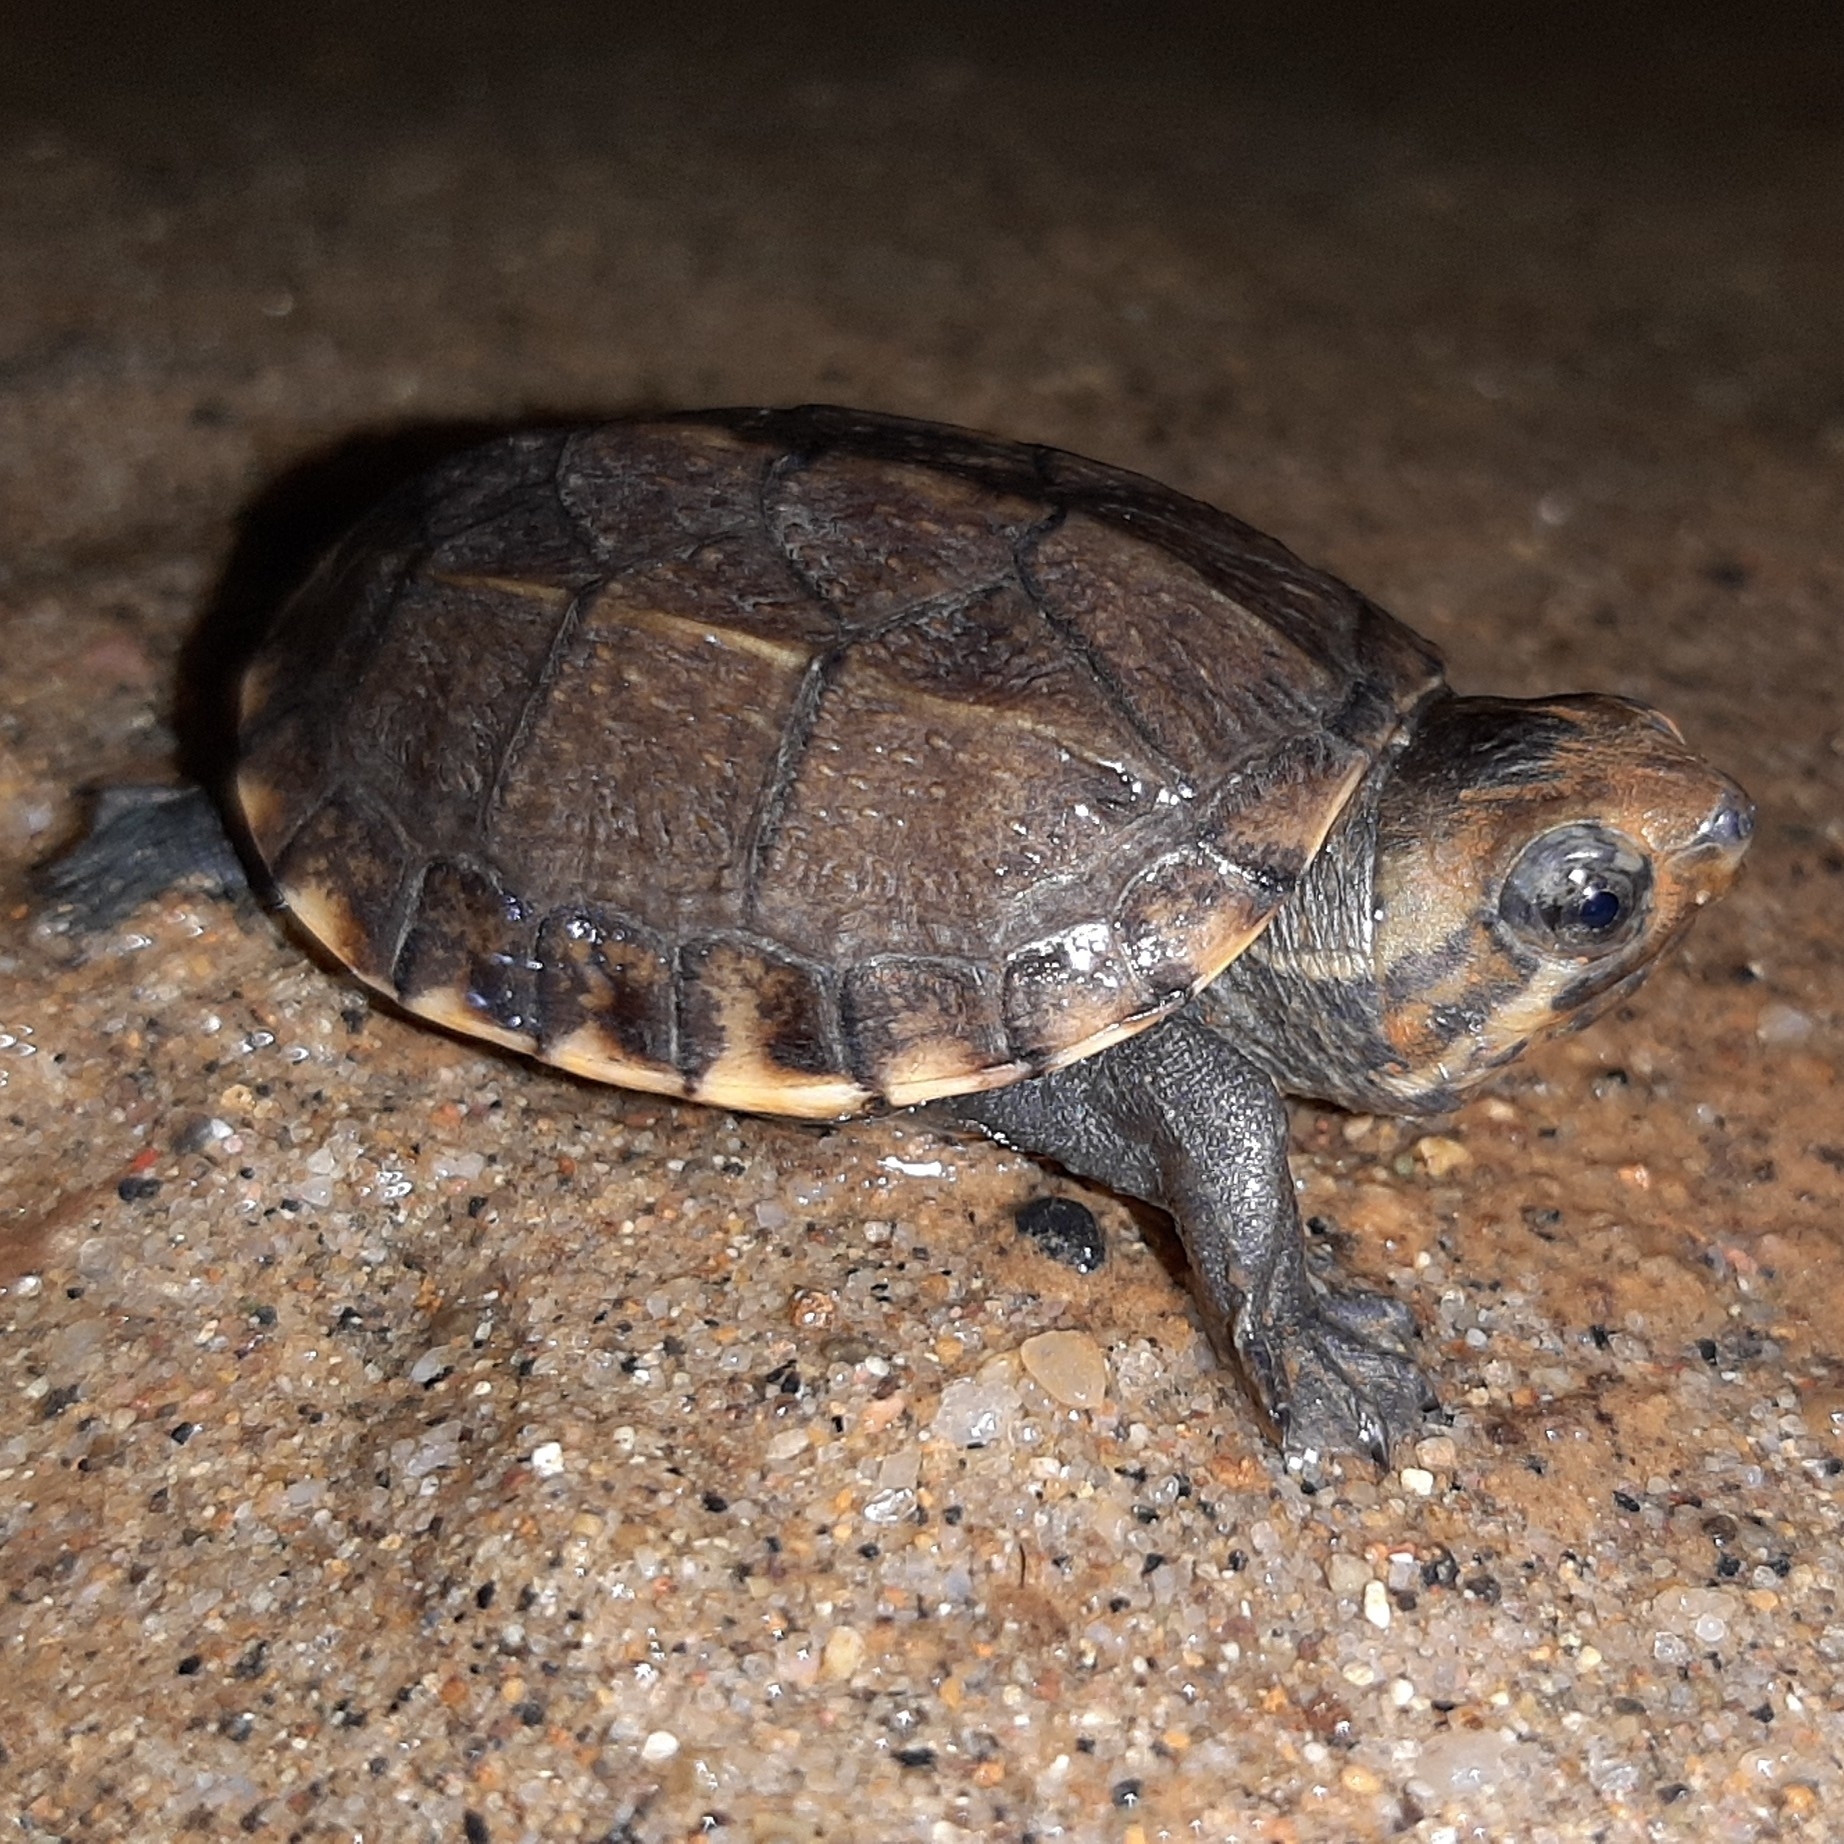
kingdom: Animalia
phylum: Chordata
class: Testudines
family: Kinosternidae
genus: Kinosternon
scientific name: Kinosternon scorpioides
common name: Scorpion mud turtle
